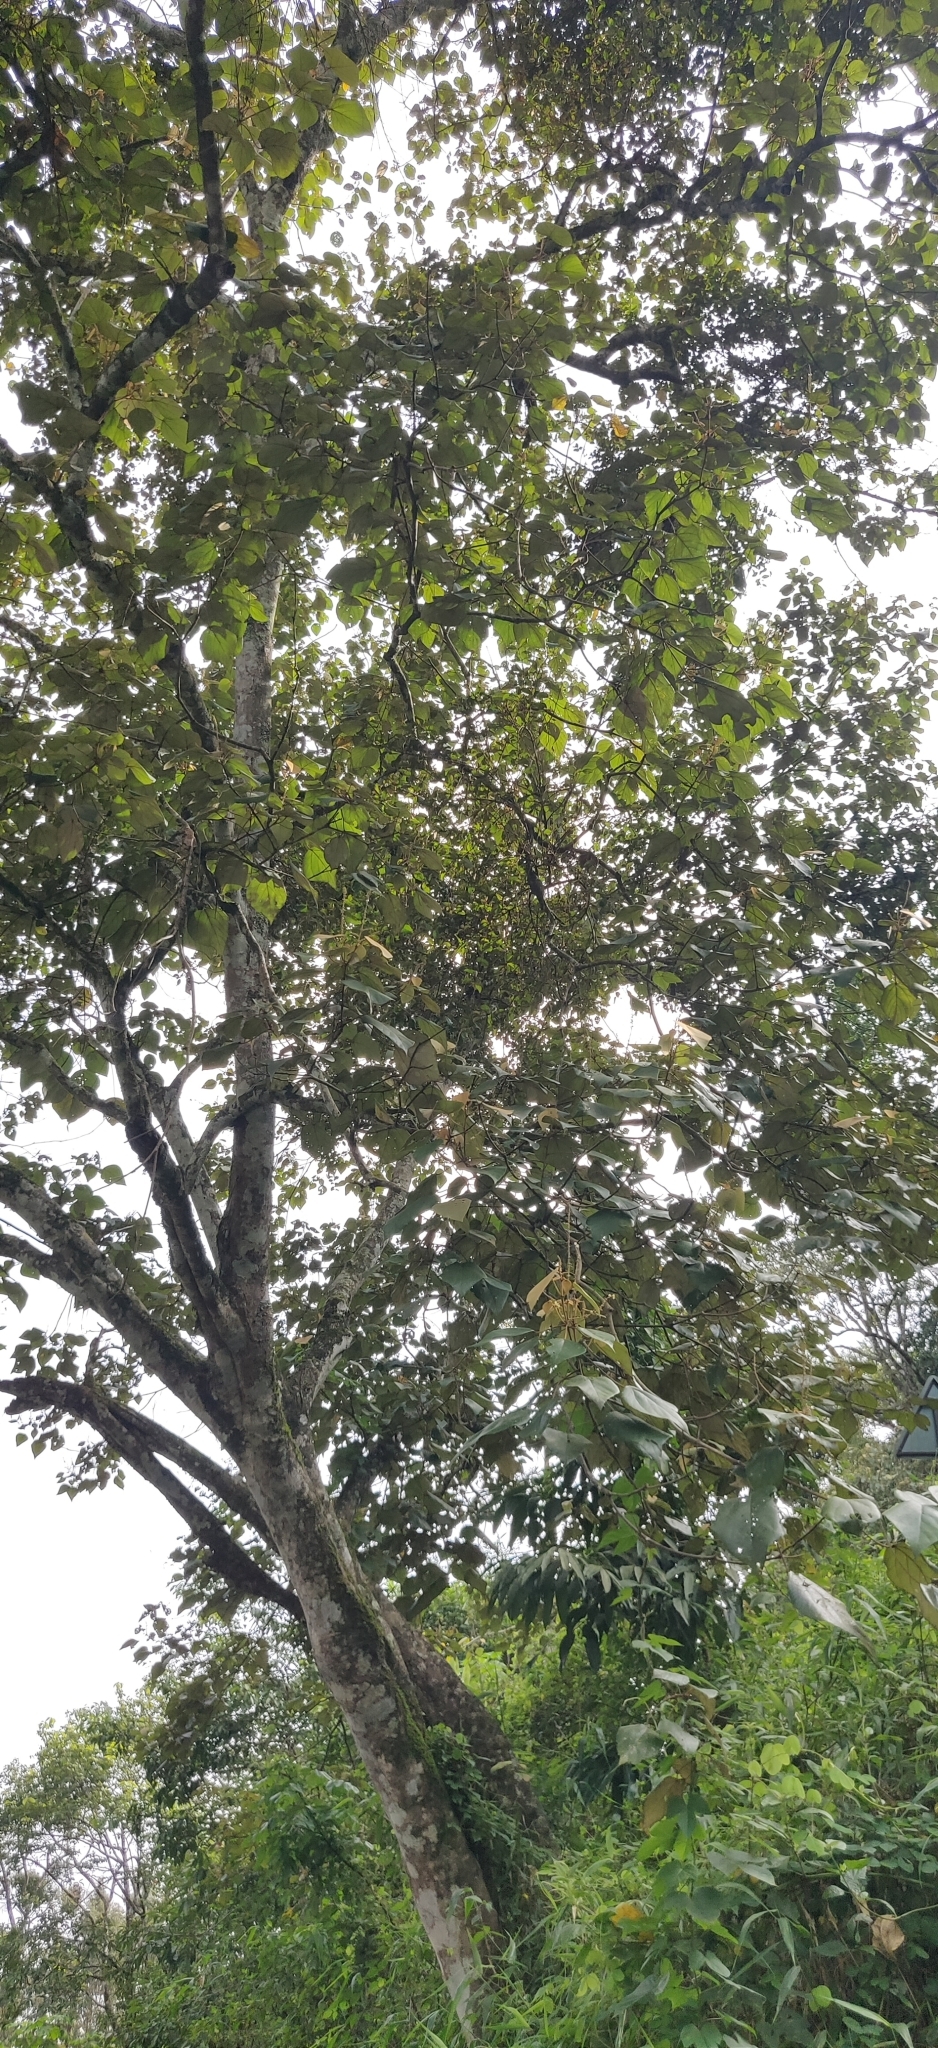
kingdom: Plantae
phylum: Tracheophyta
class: Magnoliopsida
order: Malpighiales
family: Euphorbiaceae
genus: Mallotus
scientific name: Mallotus tetracoccus
